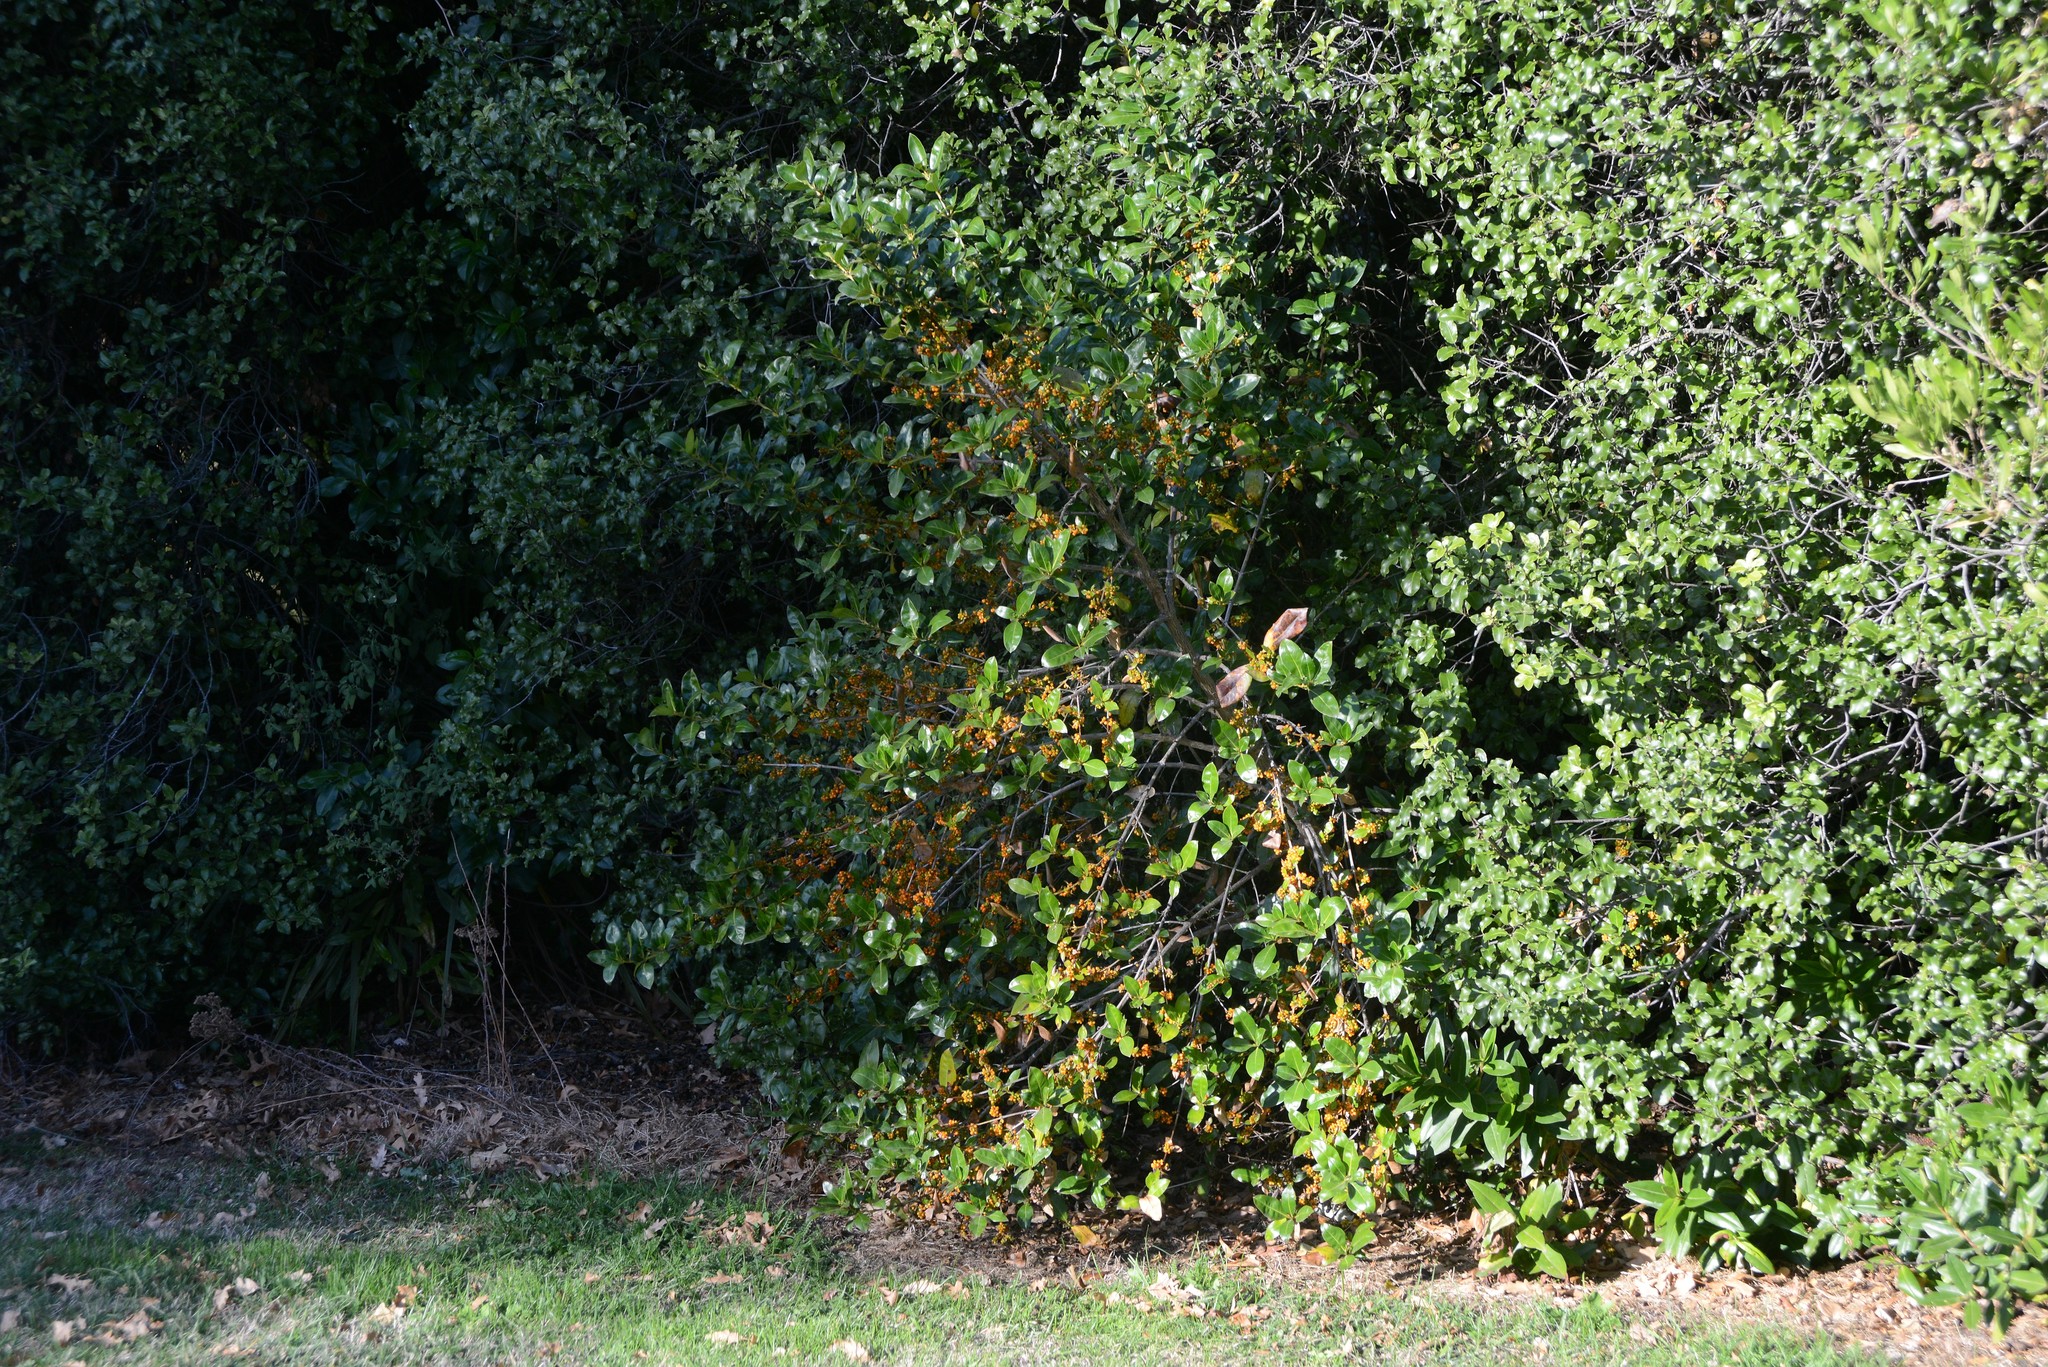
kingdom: Plantae
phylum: Tracheophyta
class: Magnoliopsida
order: Gentianales
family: Rubiaceae
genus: Coprosma
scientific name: Coprosma robusta
